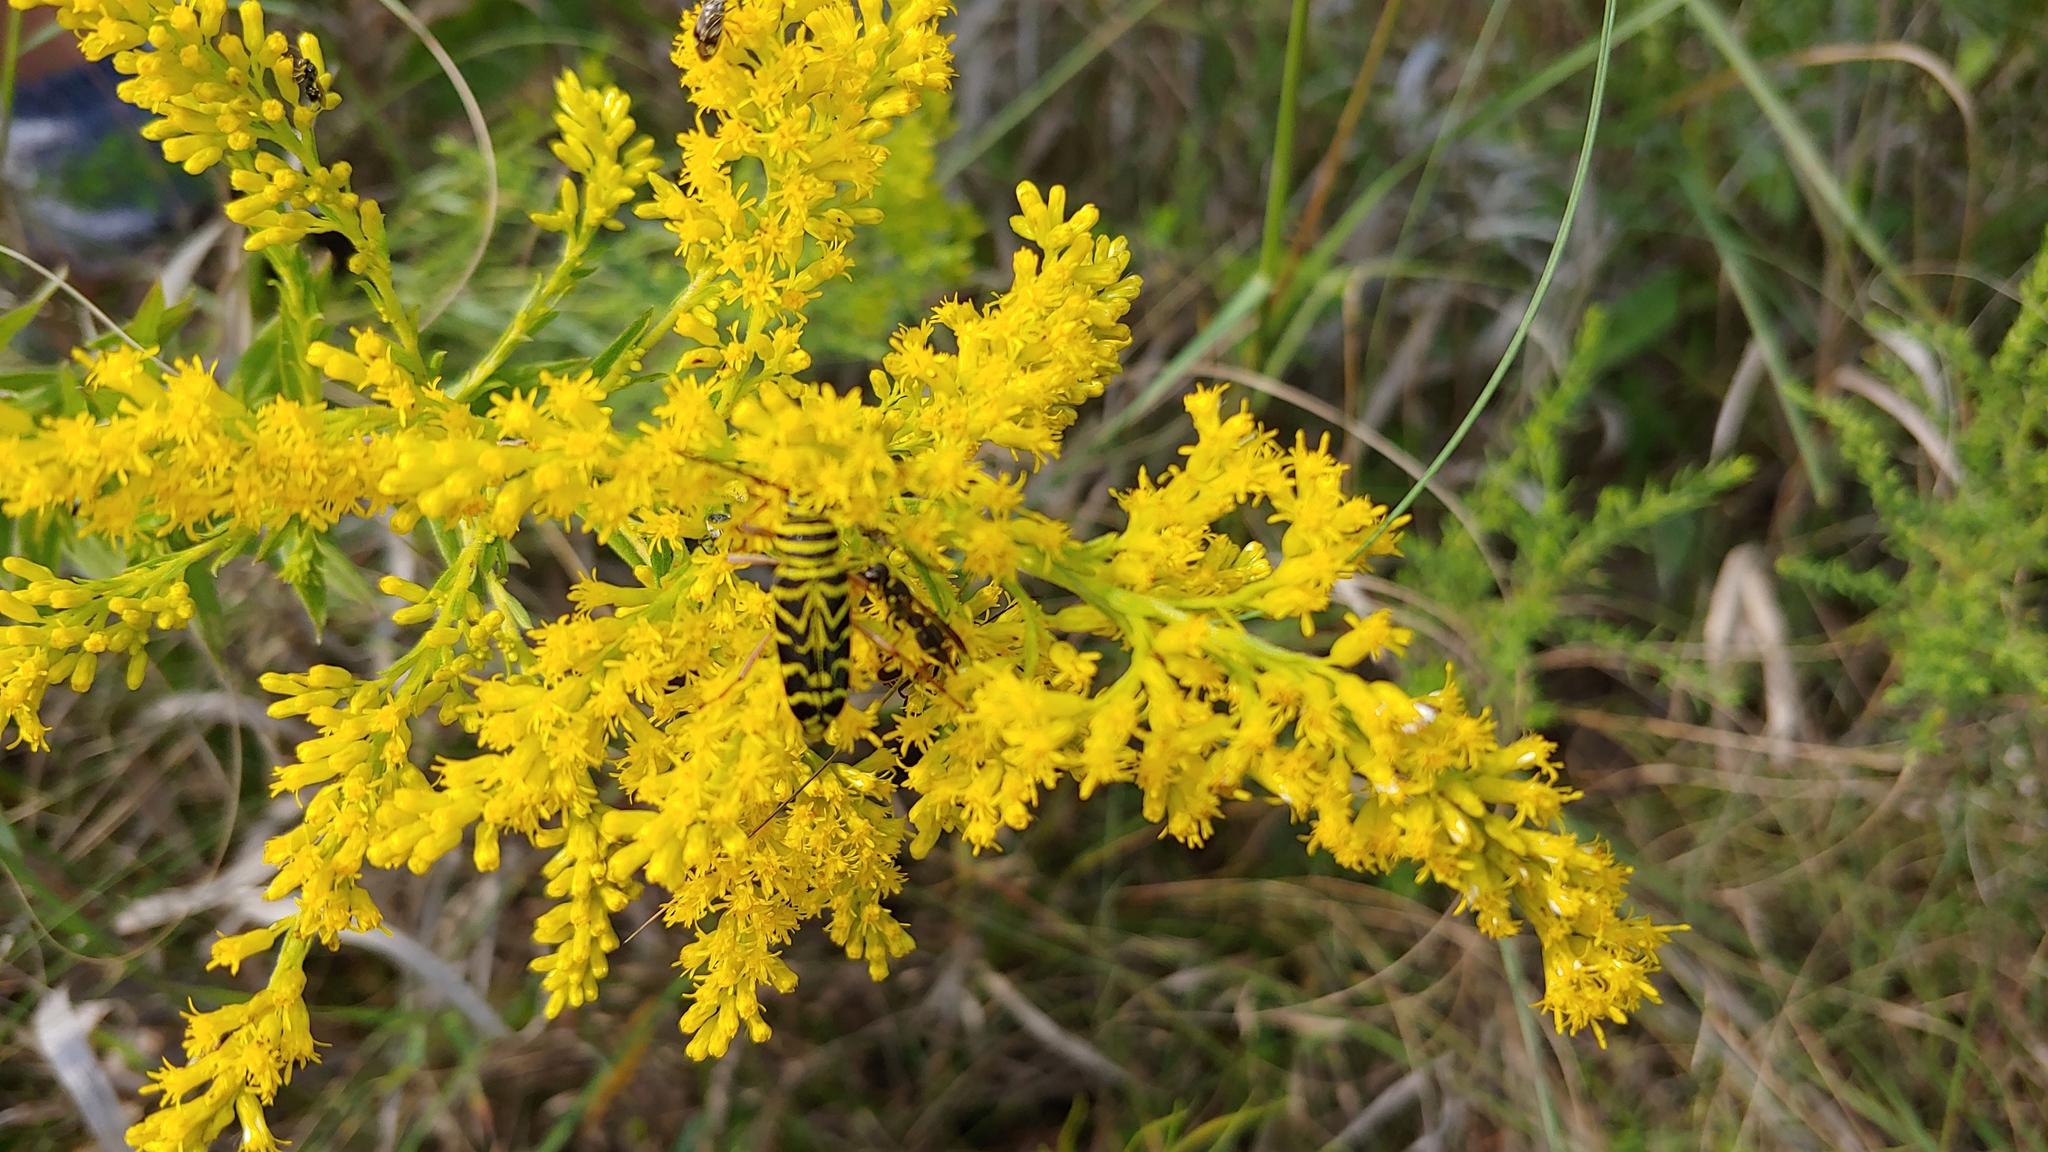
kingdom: Plantae
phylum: Tracheophyta
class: Magnoliopsida
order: Asterales
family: Asteraceae
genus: Solidago
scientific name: Solidago altissima
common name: Late goldenrod
